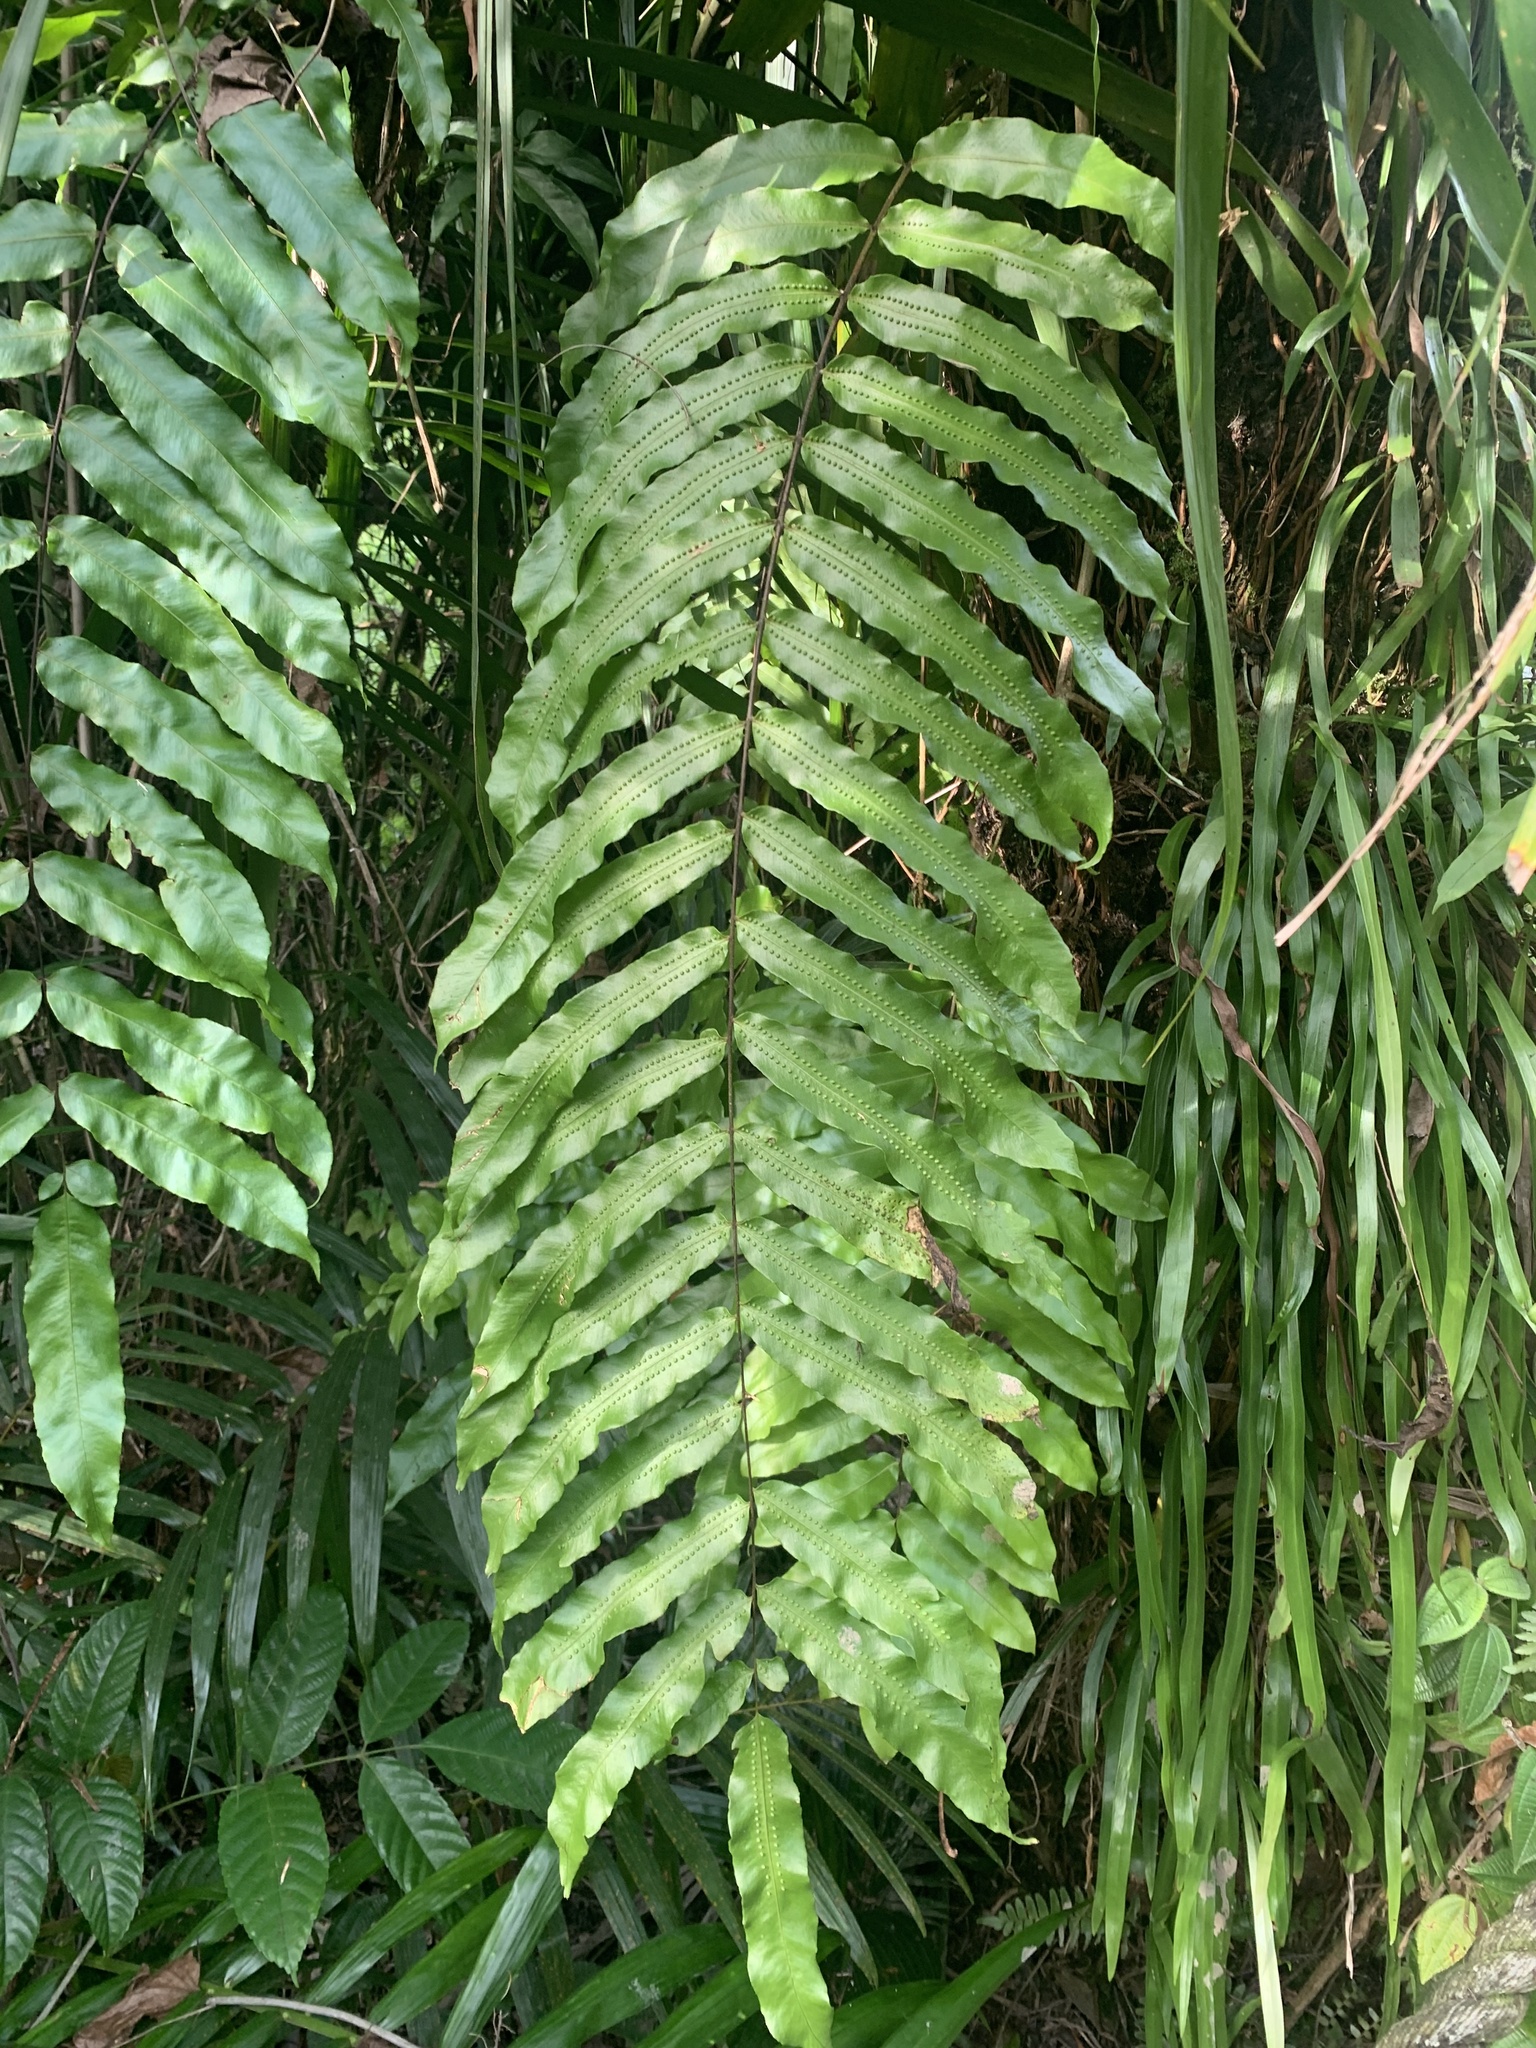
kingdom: Plantae
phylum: Tracheophyta
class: Polypodiopsida
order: Polypodiales
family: Polypodiaceae
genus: Goniophlebium
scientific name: Goniophlebium percussum
